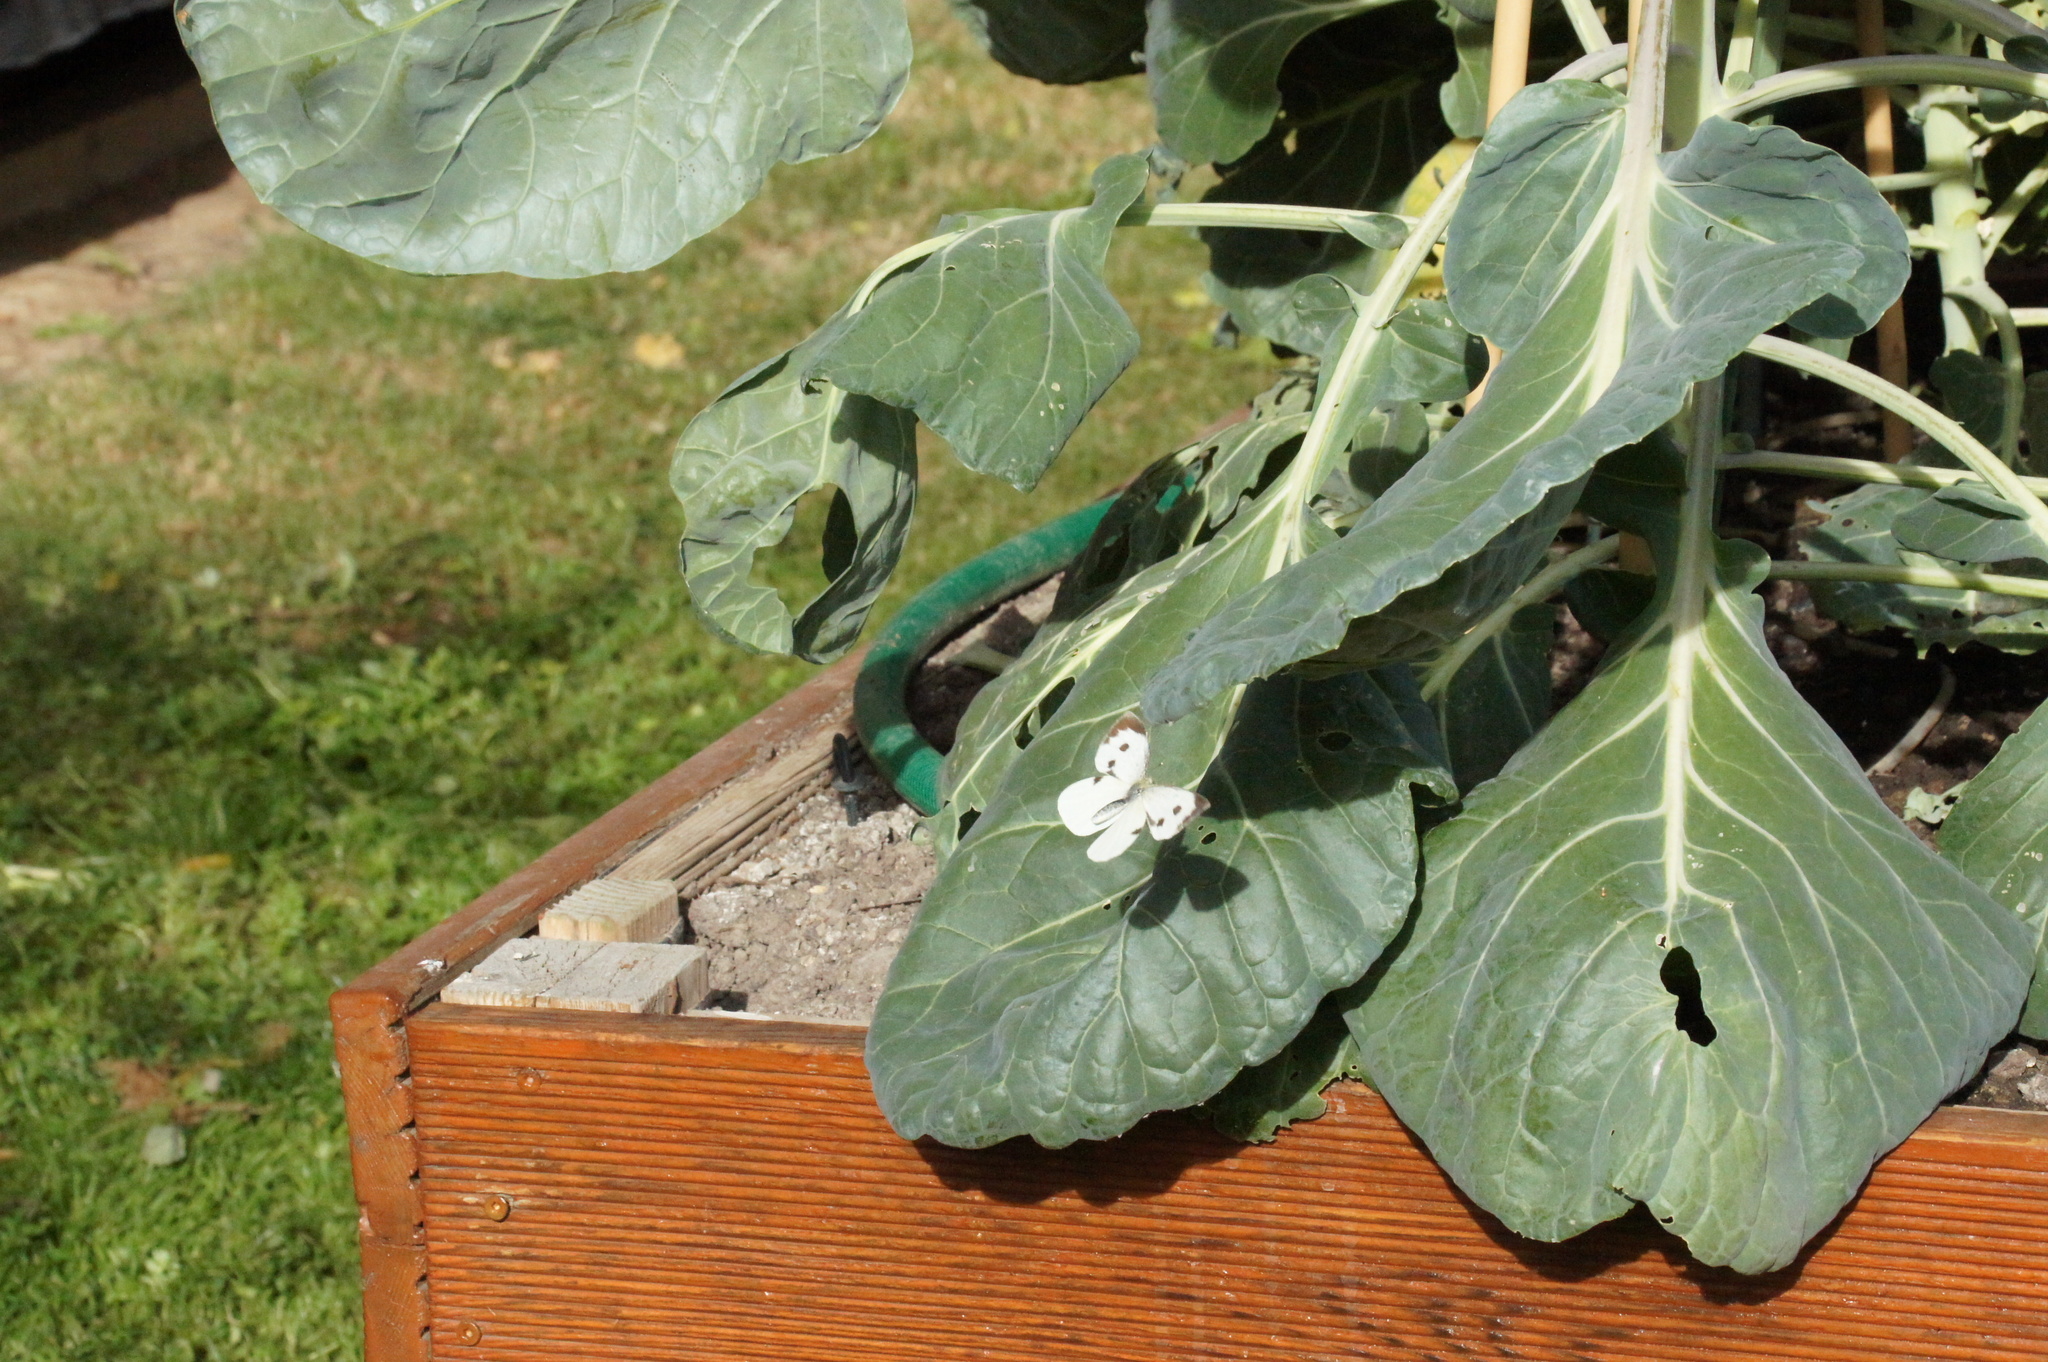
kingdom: Animalia
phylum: Arthropoda
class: Insecta
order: Lepidoptera
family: Pieridae
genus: Pieris
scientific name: Pieris brassicae
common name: Large white
